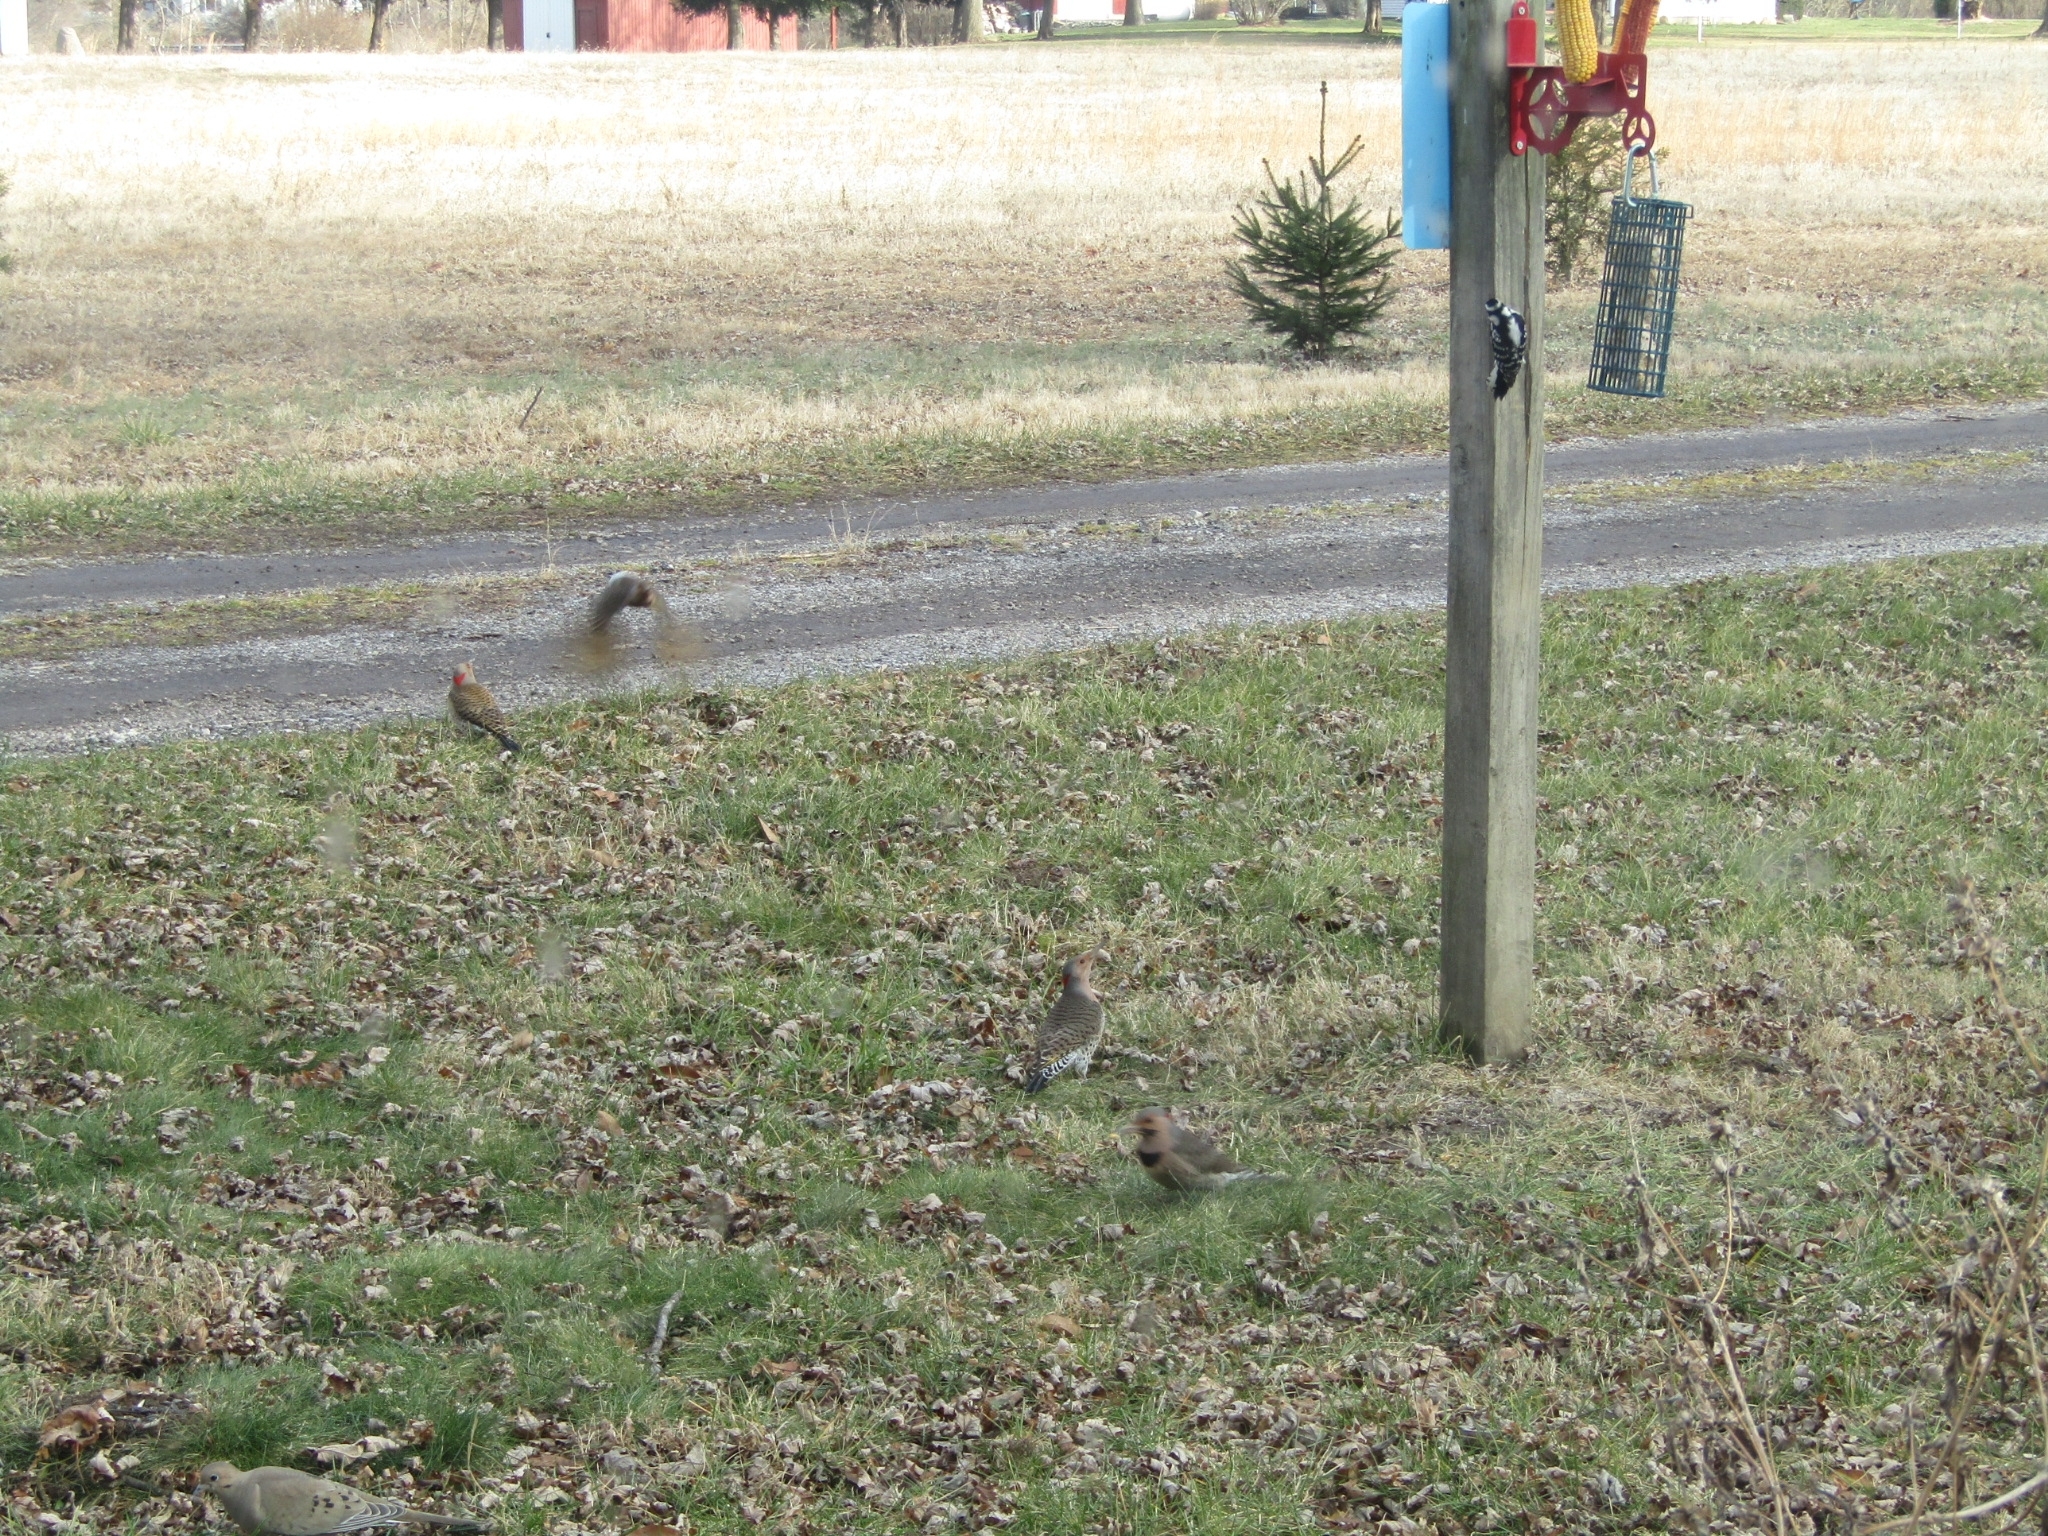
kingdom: Animalia
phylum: Chordata
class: Aves
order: Piciformes
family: Picidae
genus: Colaptes
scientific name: Colaptes auratus
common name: Northern flicker
